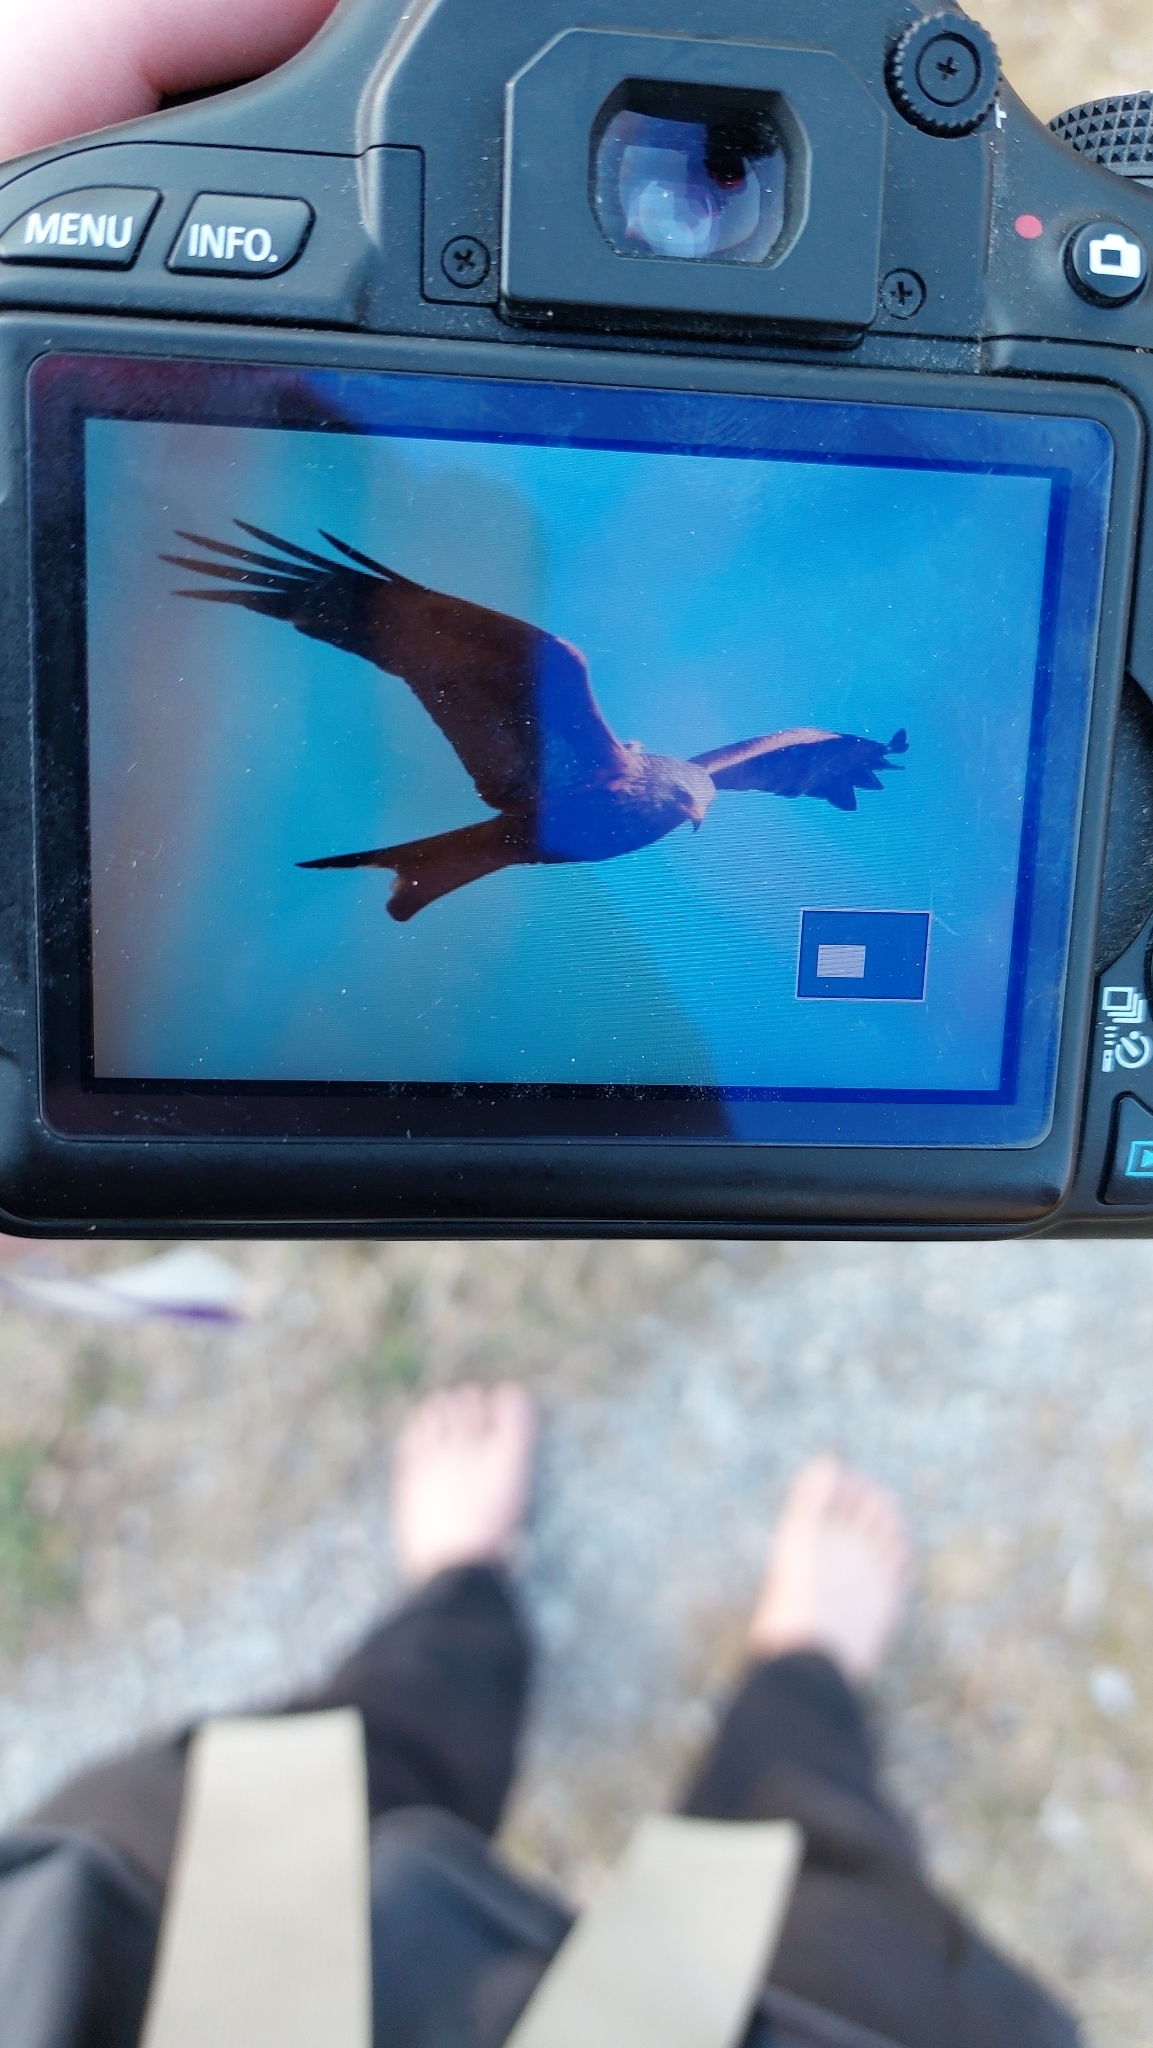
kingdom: Animalia
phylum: Chordata
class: Aves
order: Accipitriformes
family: Accipitridae
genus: Milvus
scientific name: Milvus milvus
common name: Red kite
